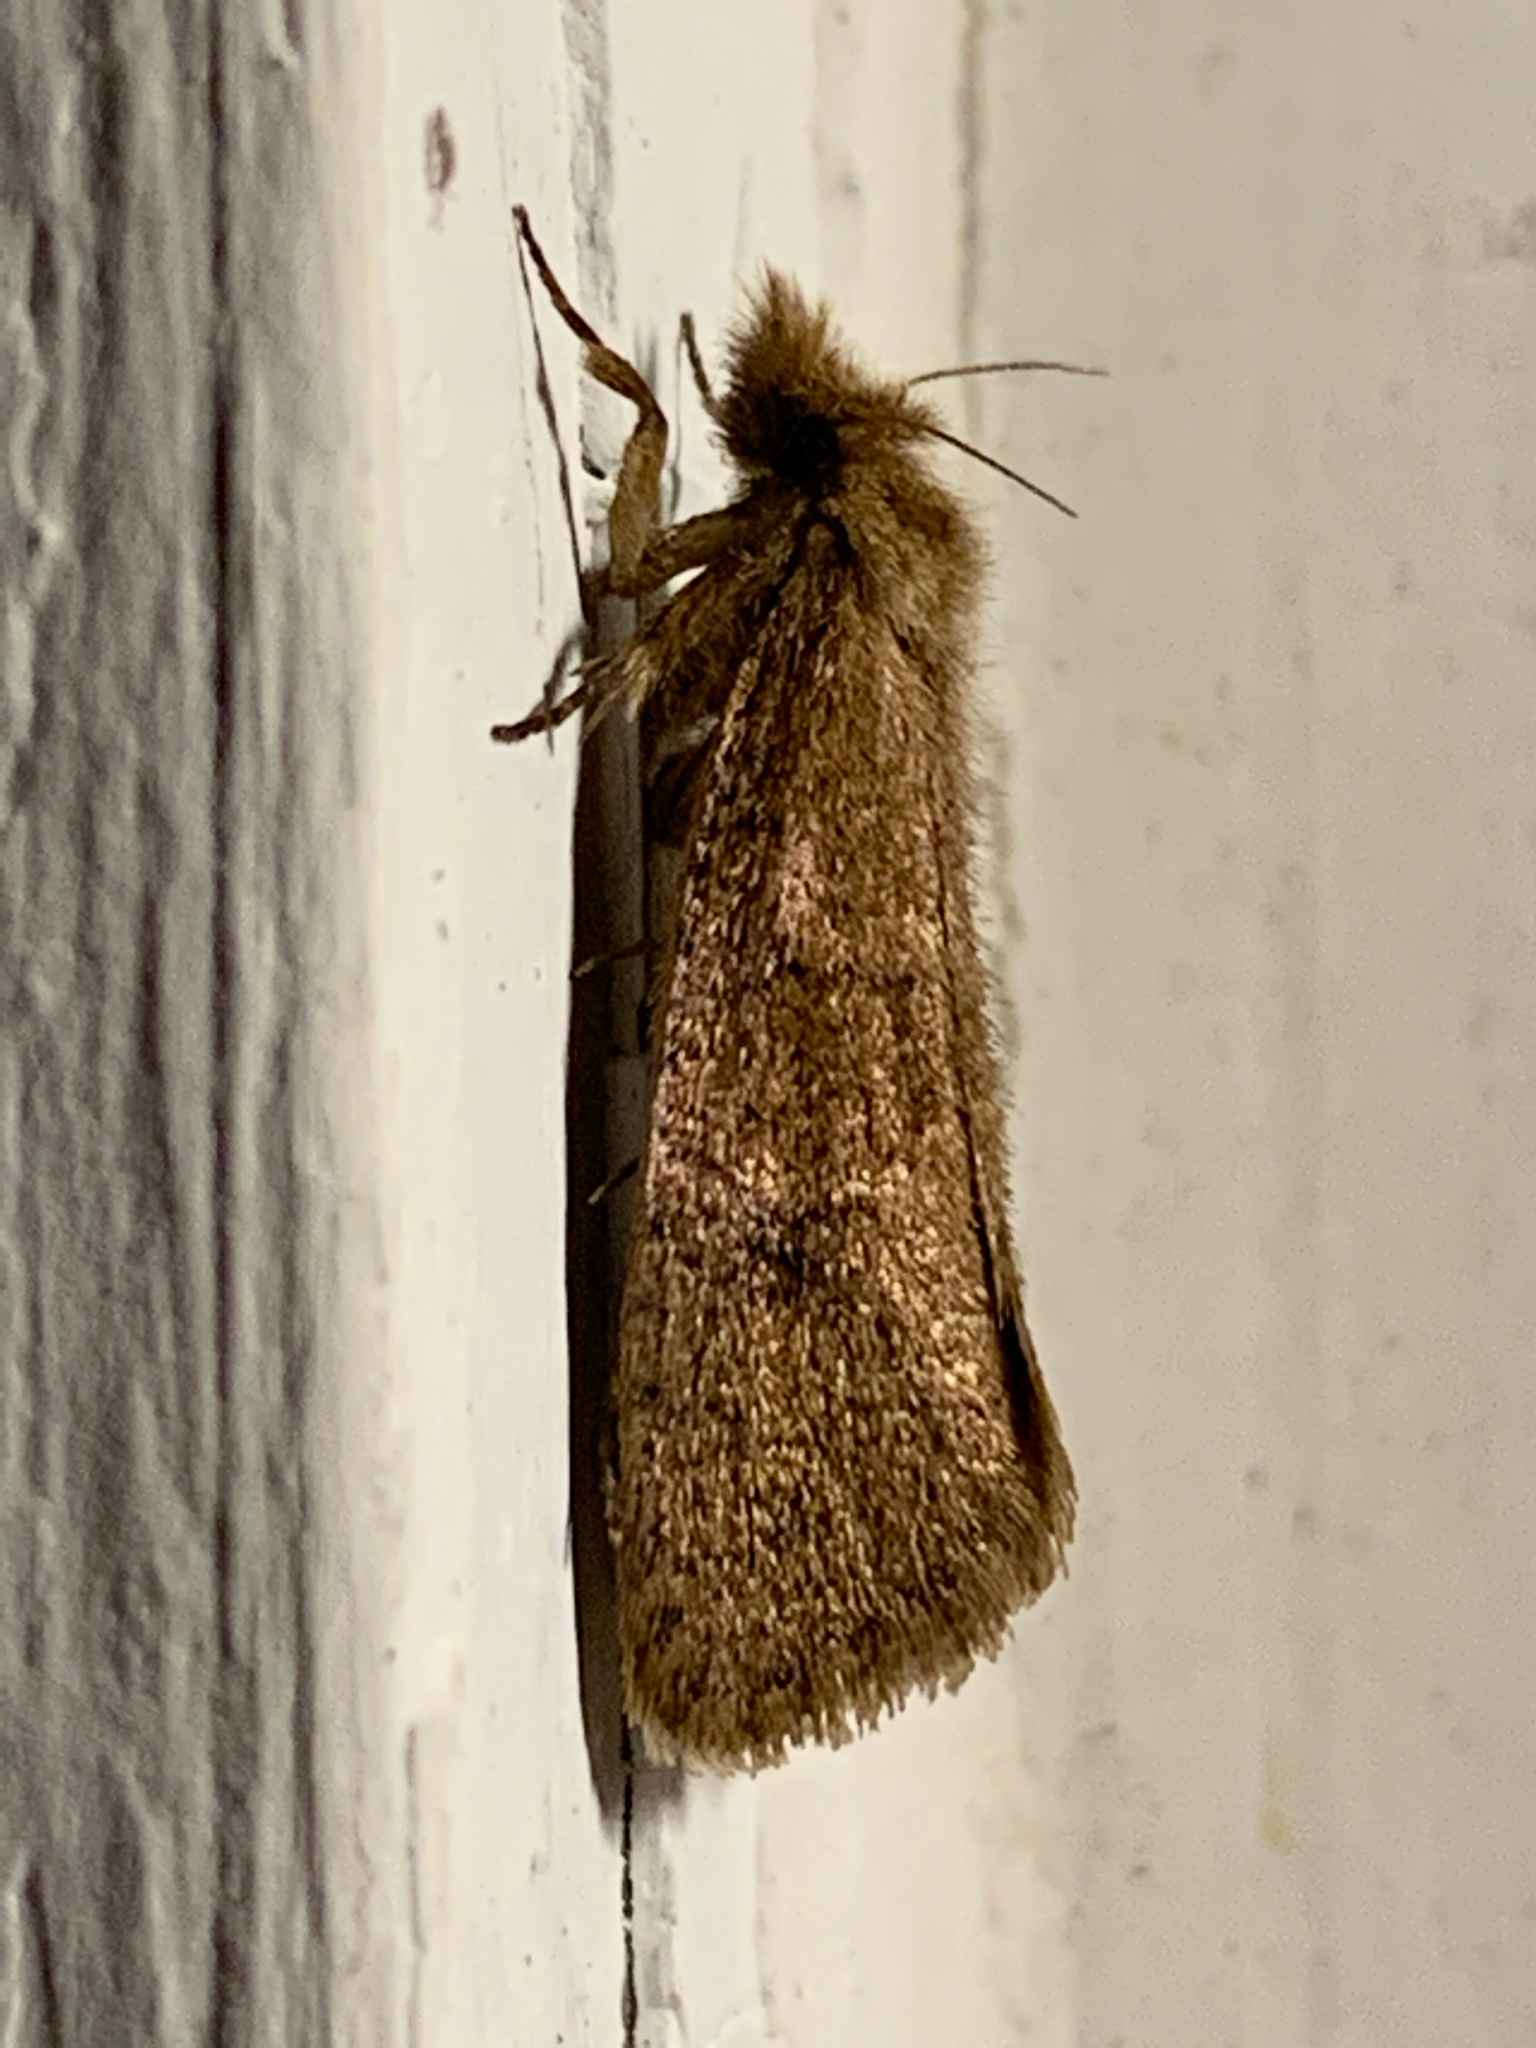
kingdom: Animalia
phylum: Arthropoda
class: Insecta
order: Lepidoptera
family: Tineidae
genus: Acrolophus
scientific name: Acrolophus propinqua
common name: Walsingham's grass tubeworm moth
